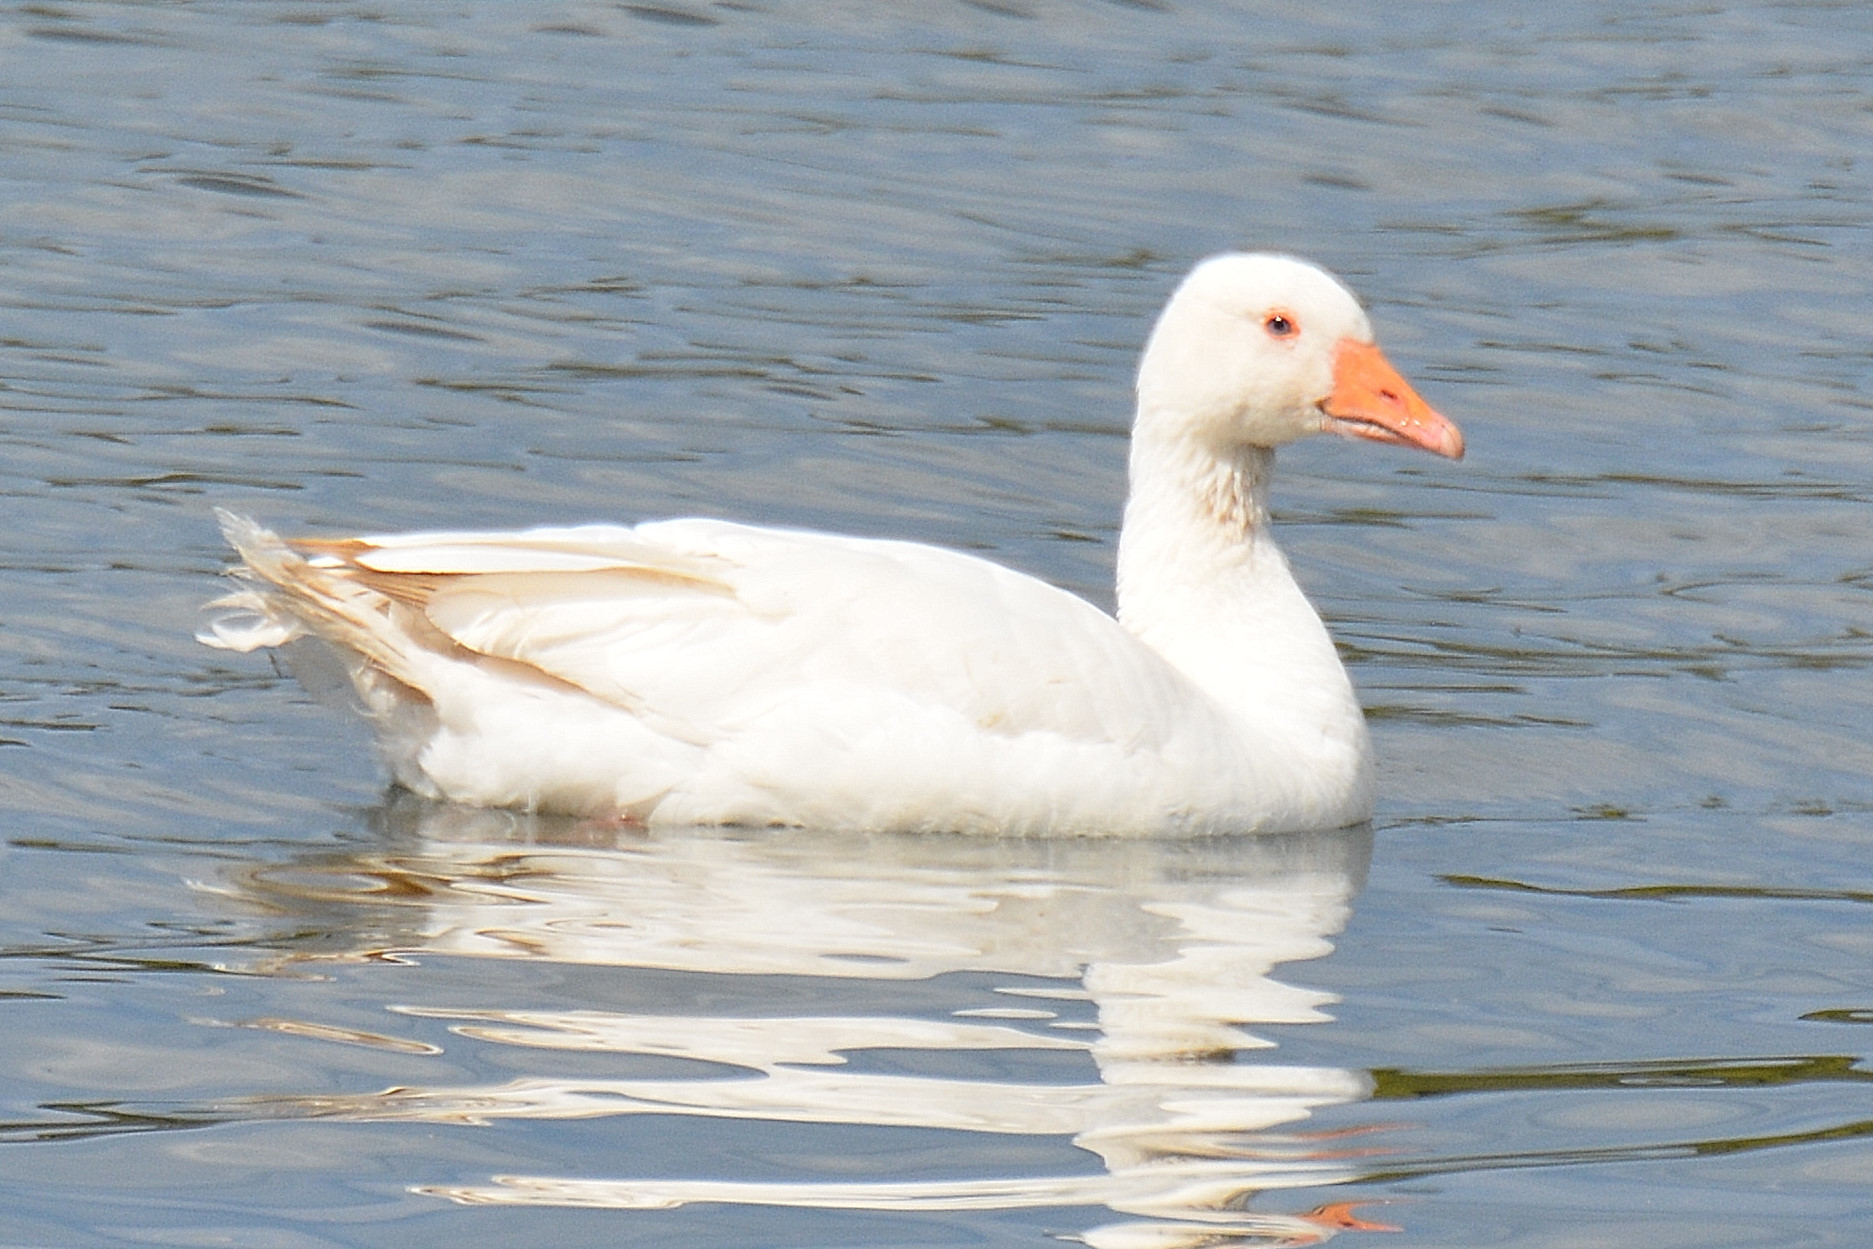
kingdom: Animalia
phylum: Chordata
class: Aves
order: Anseriformes
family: Anatidae
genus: Anser
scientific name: Anser anser
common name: Greylag goose
